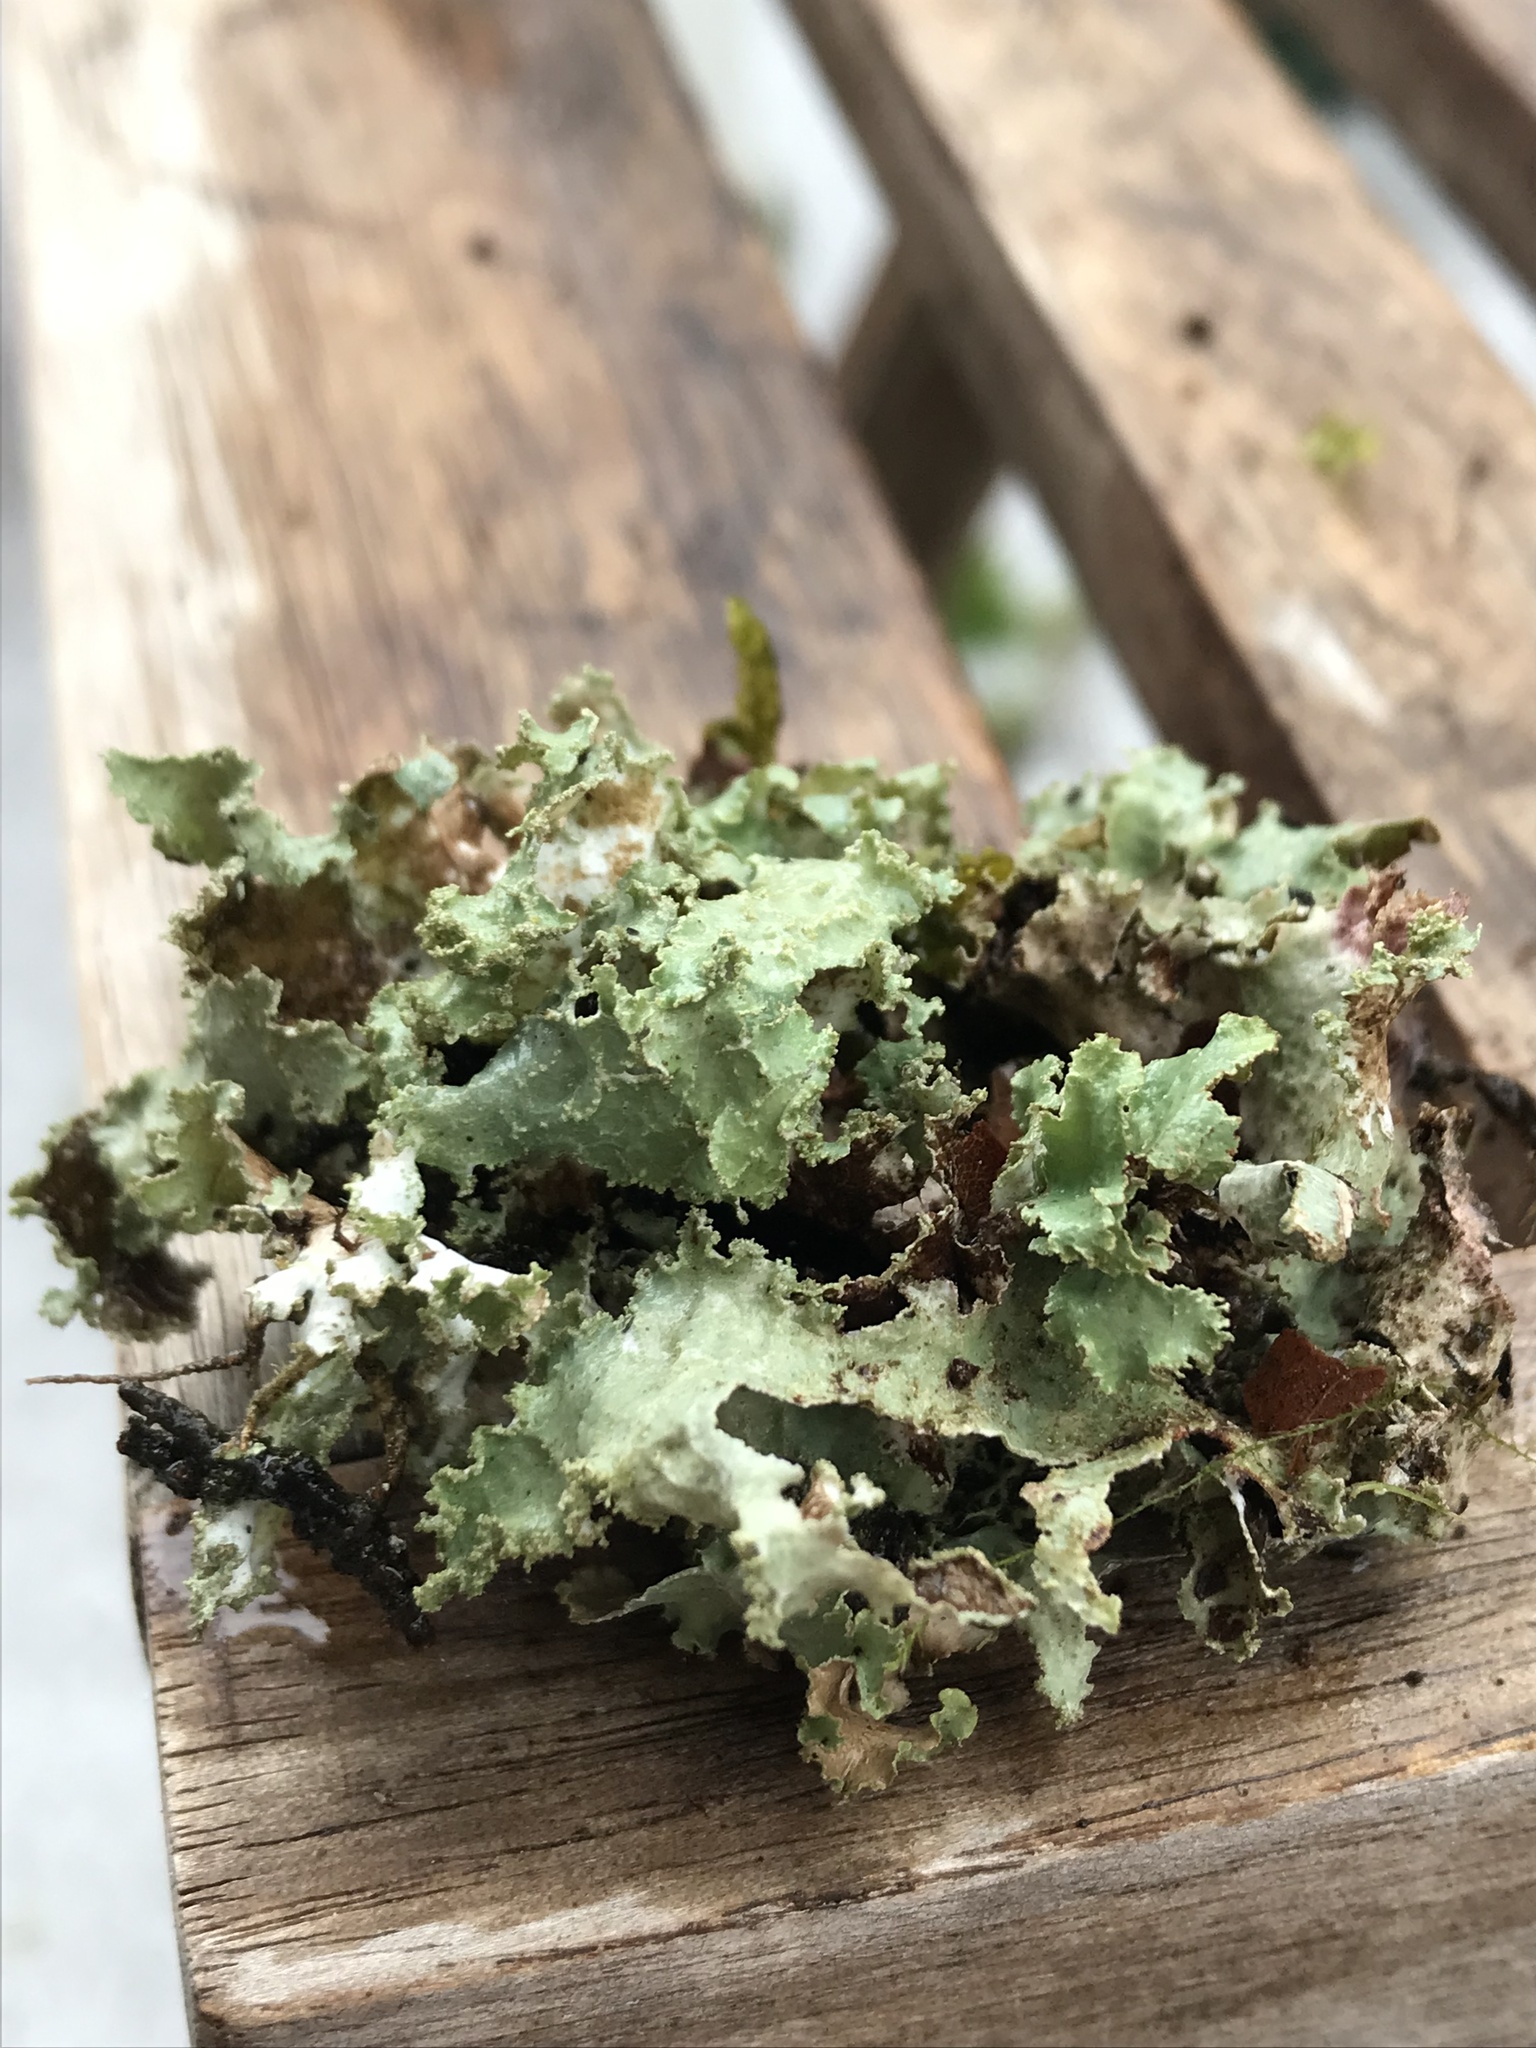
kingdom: Fungi
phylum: Ascomycota
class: Lecanoromycetes
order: Lecanorales
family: Parmeliaceae
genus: Platismatia
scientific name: Platismatia glauca
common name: Varied rag lichen
